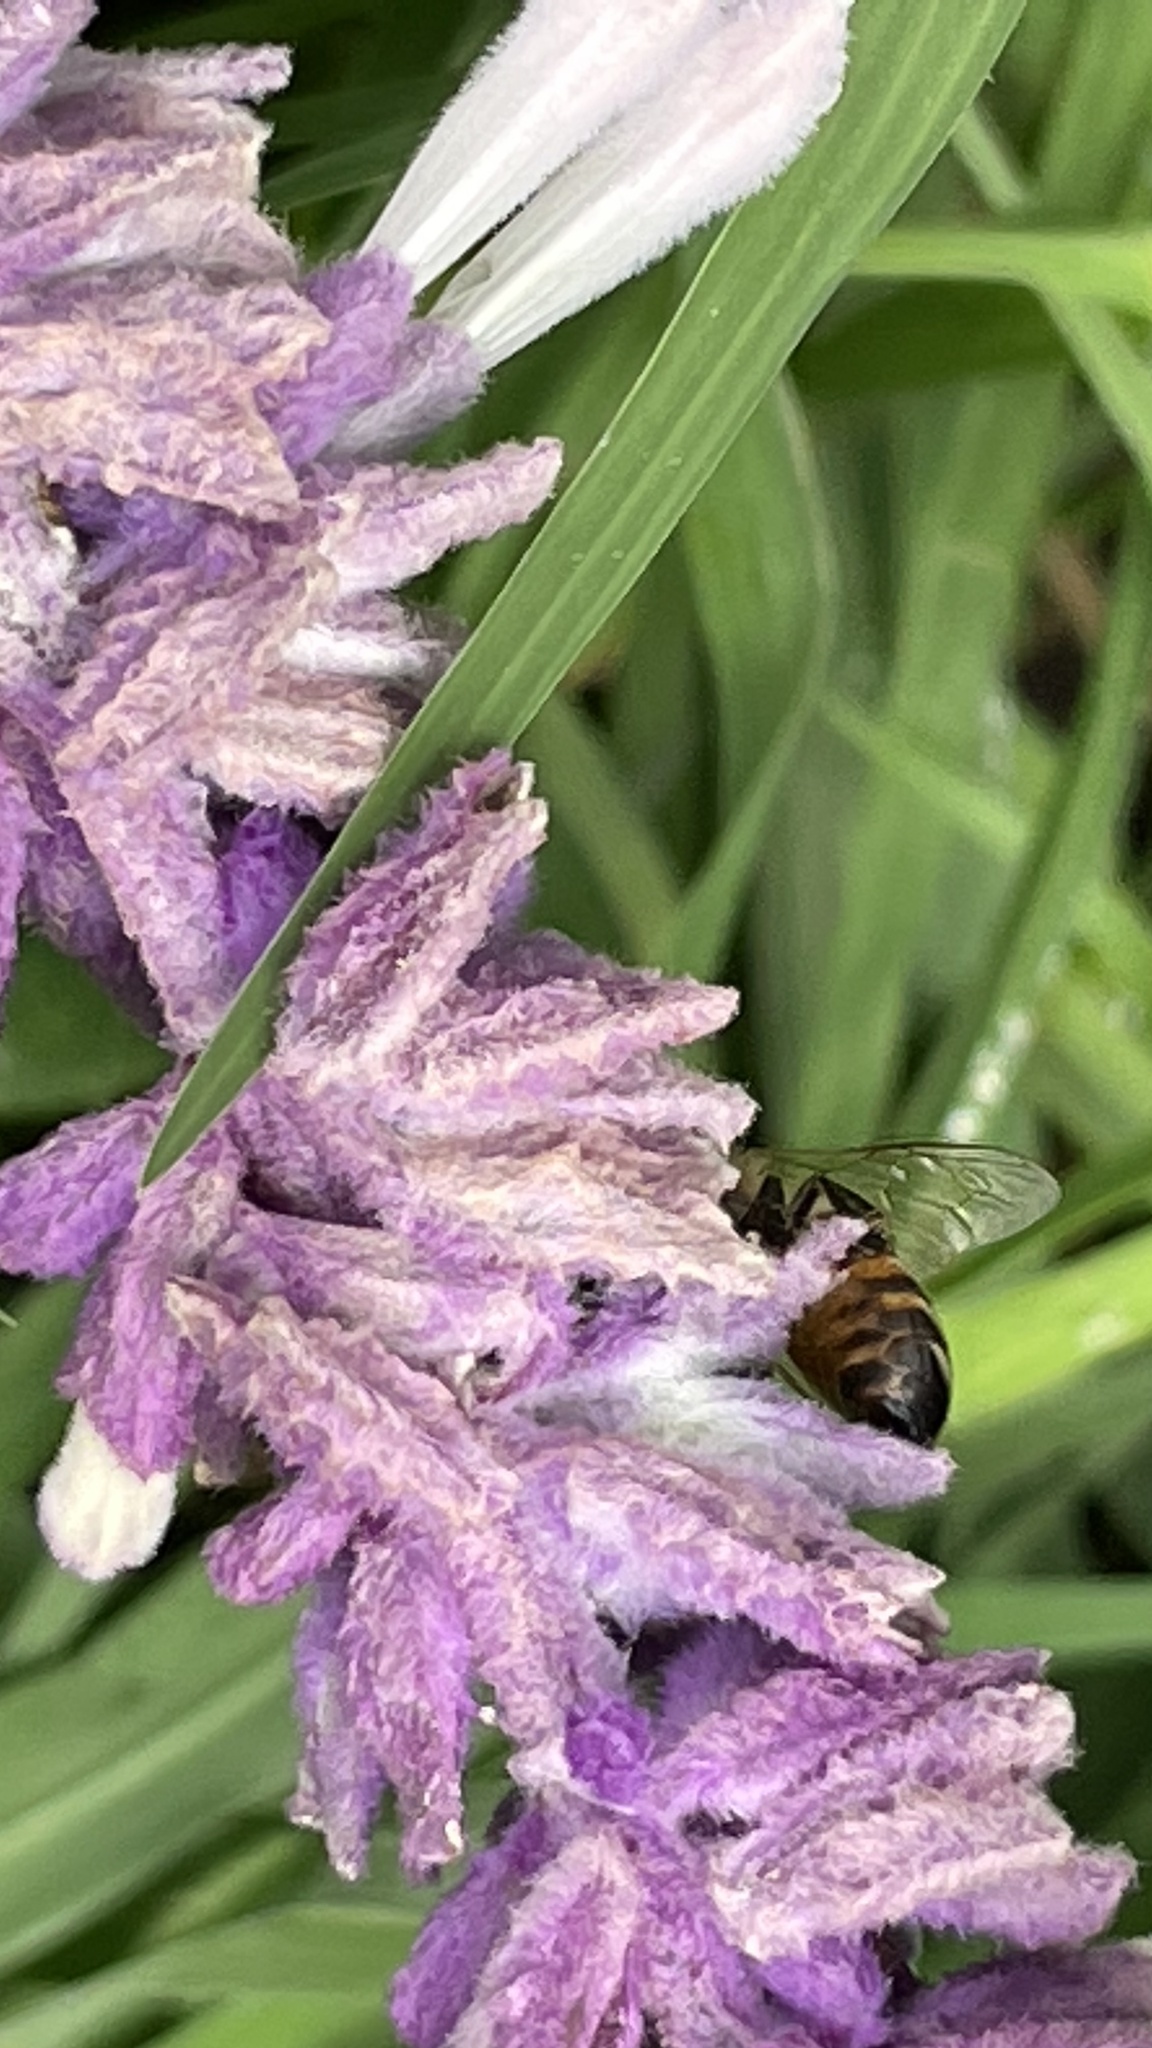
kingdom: Animalia
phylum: Arthropoda
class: Insecta
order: Hymenoptera
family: Apidae
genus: Apis
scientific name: Apis mellifera
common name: Honey bee
